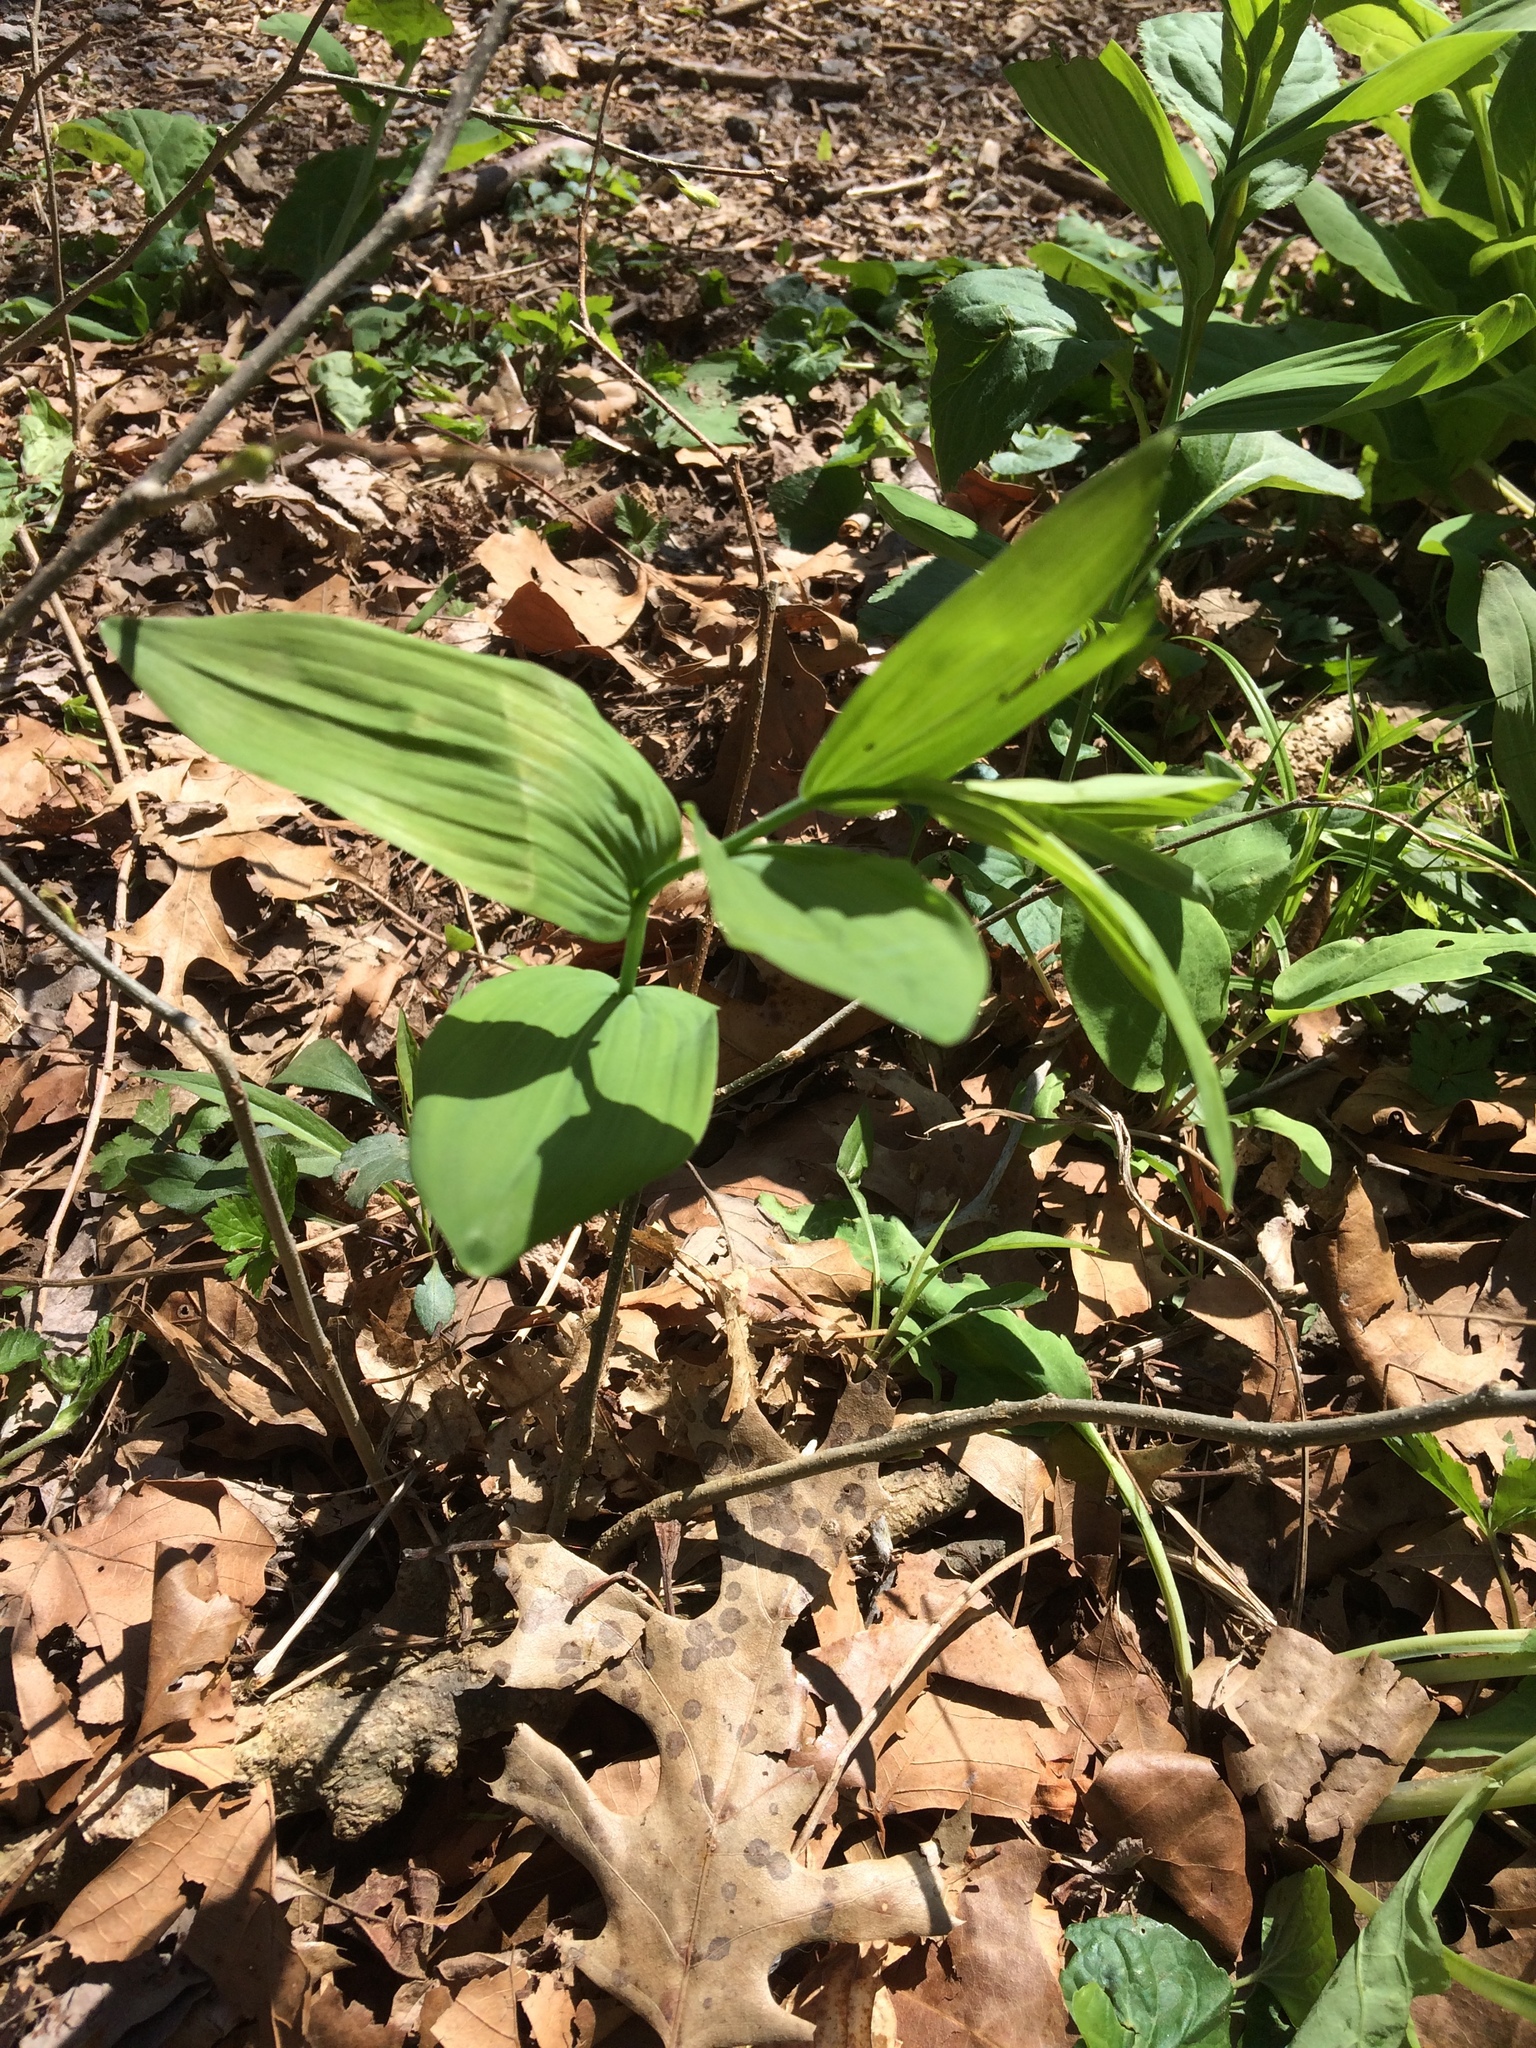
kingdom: Plantae
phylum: Tracheophyta
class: Liliopsida
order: Asparagales
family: Asparagaceae
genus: Polygonatum
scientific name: Polygonatum biflorum
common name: American solomon's-seal
